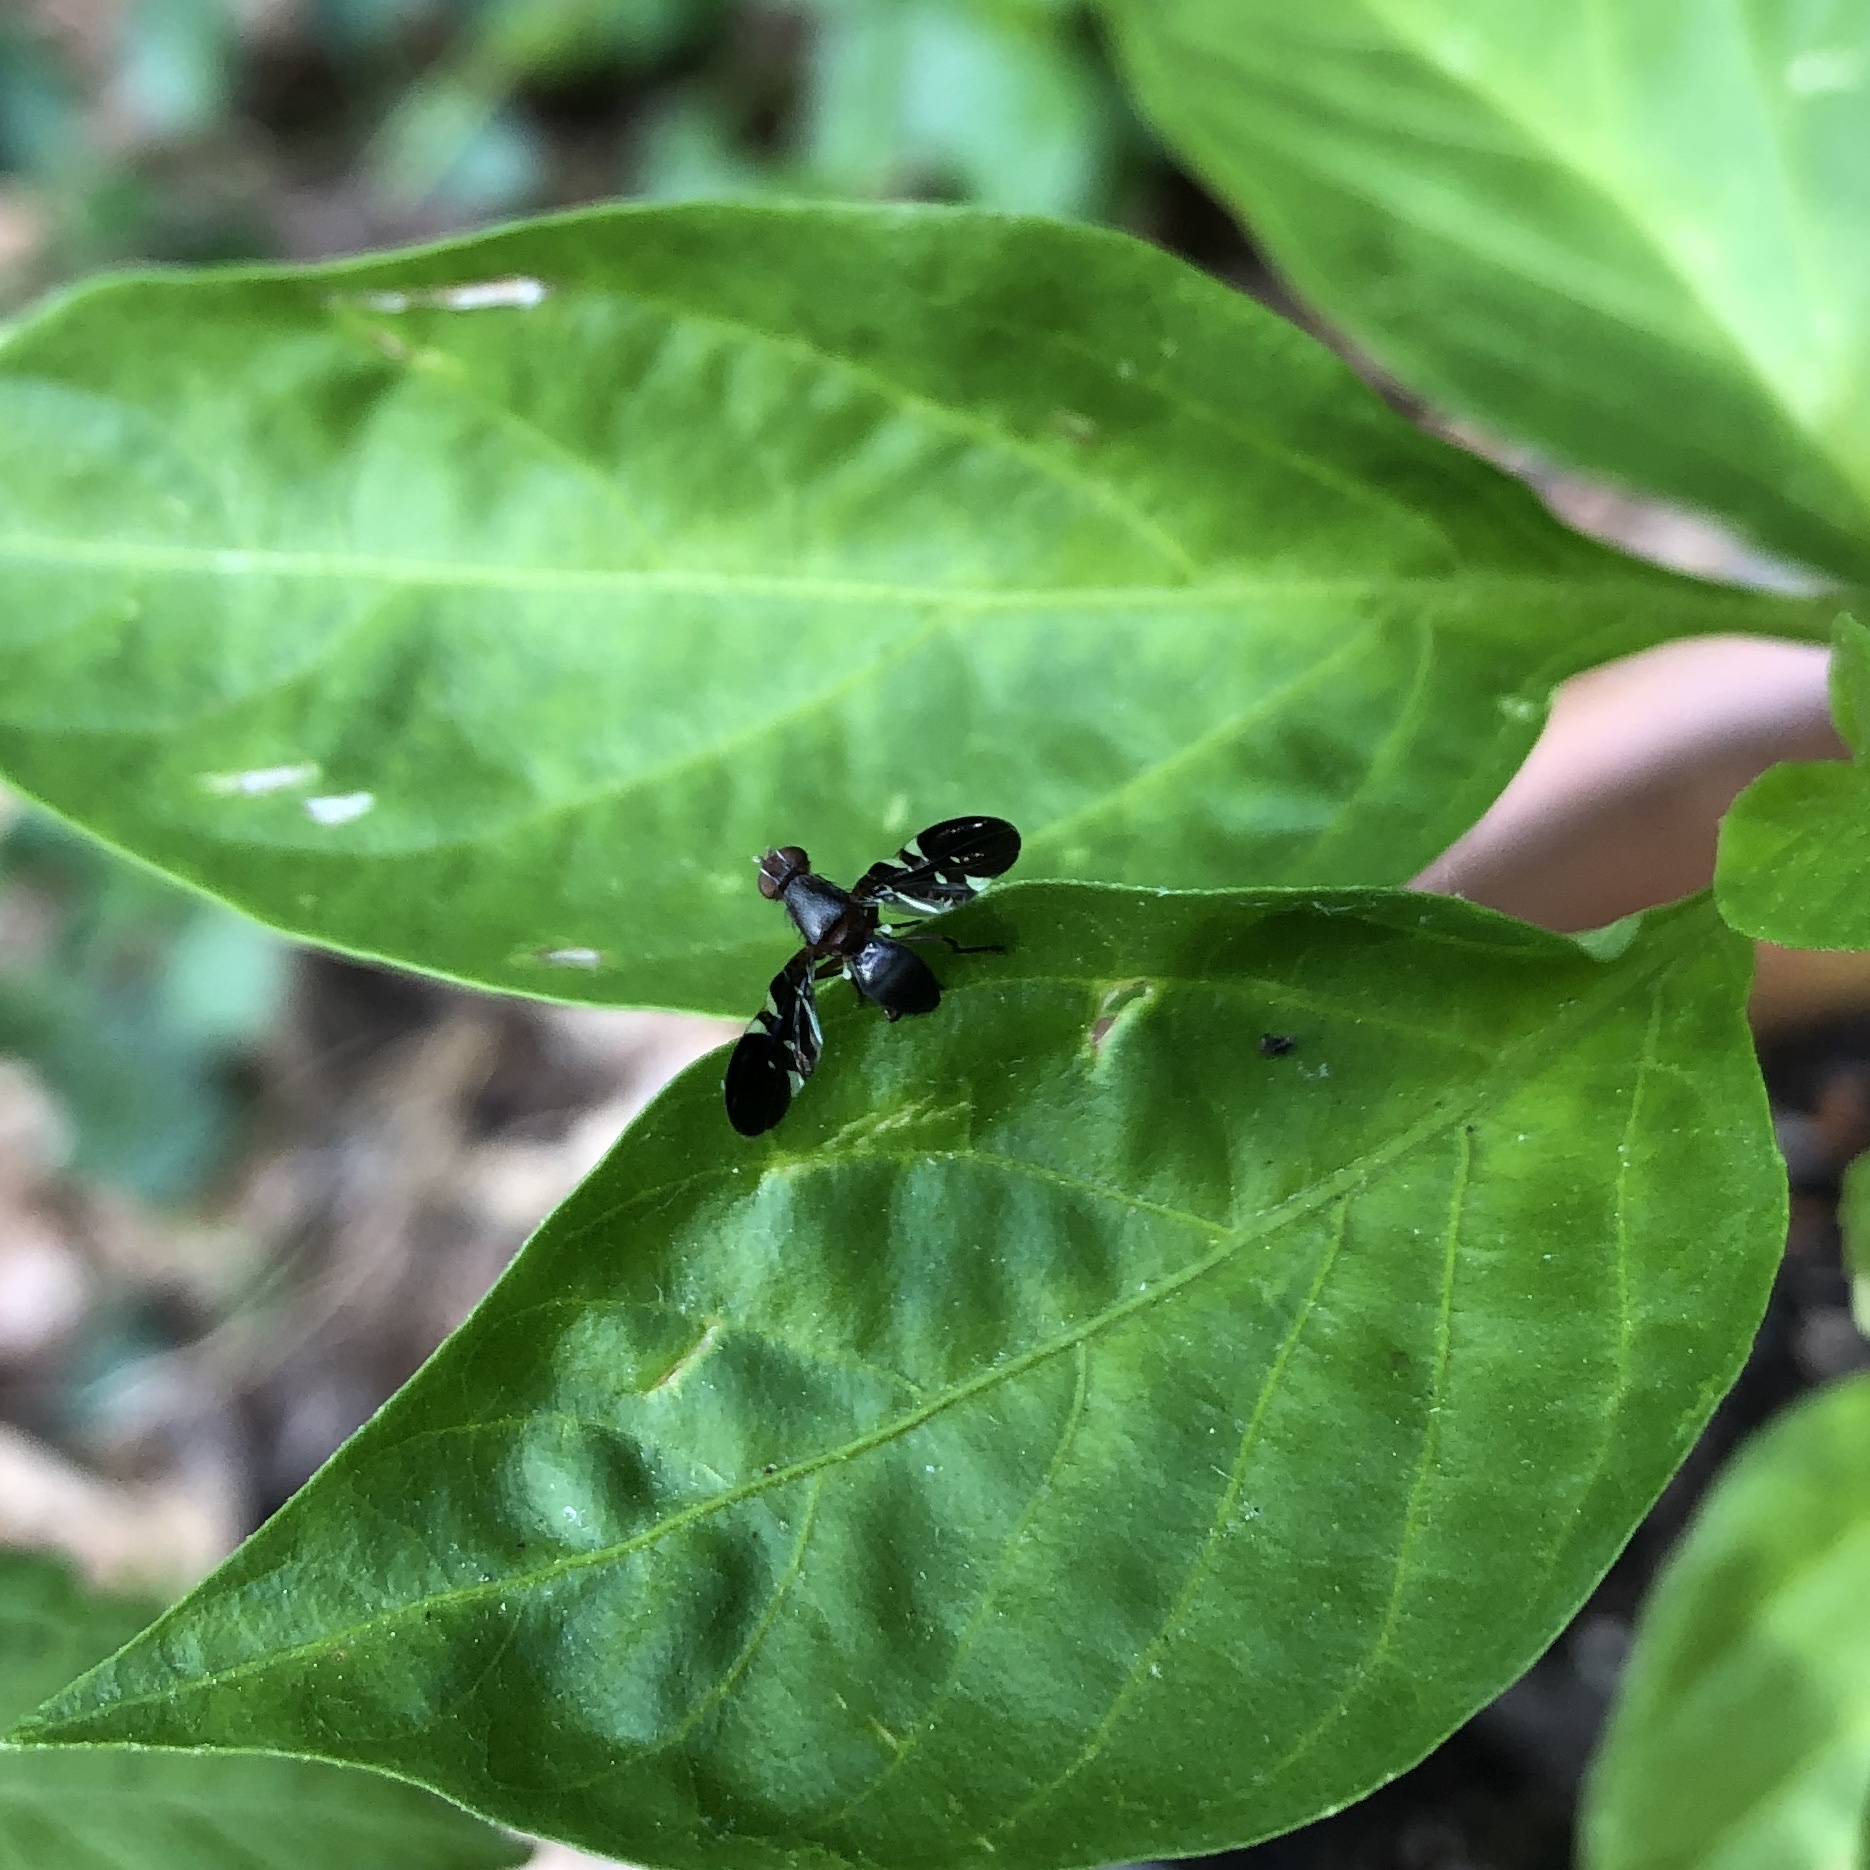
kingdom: Animalia
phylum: Arthropoda
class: Insecta
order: Diptera
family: Ulidiidae
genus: Delphinia
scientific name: Delphinia picta
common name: Common picture-winged fly
